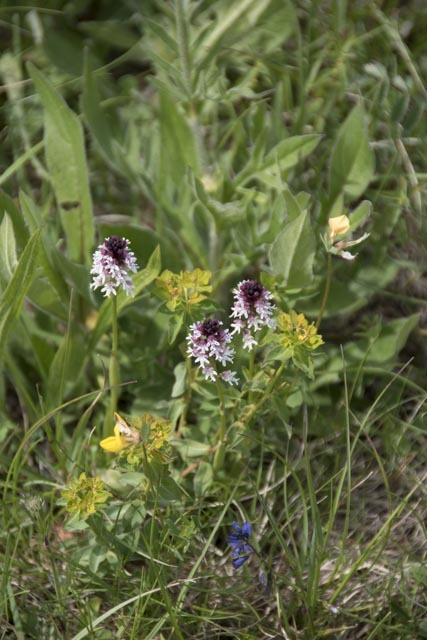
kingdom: Plantae
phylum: Tracheophyta
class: Liliopsida
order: Asparagales
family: Orchidaceae
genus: Neotinea
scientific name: Neotinea ustulata
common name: Burnt orchid
